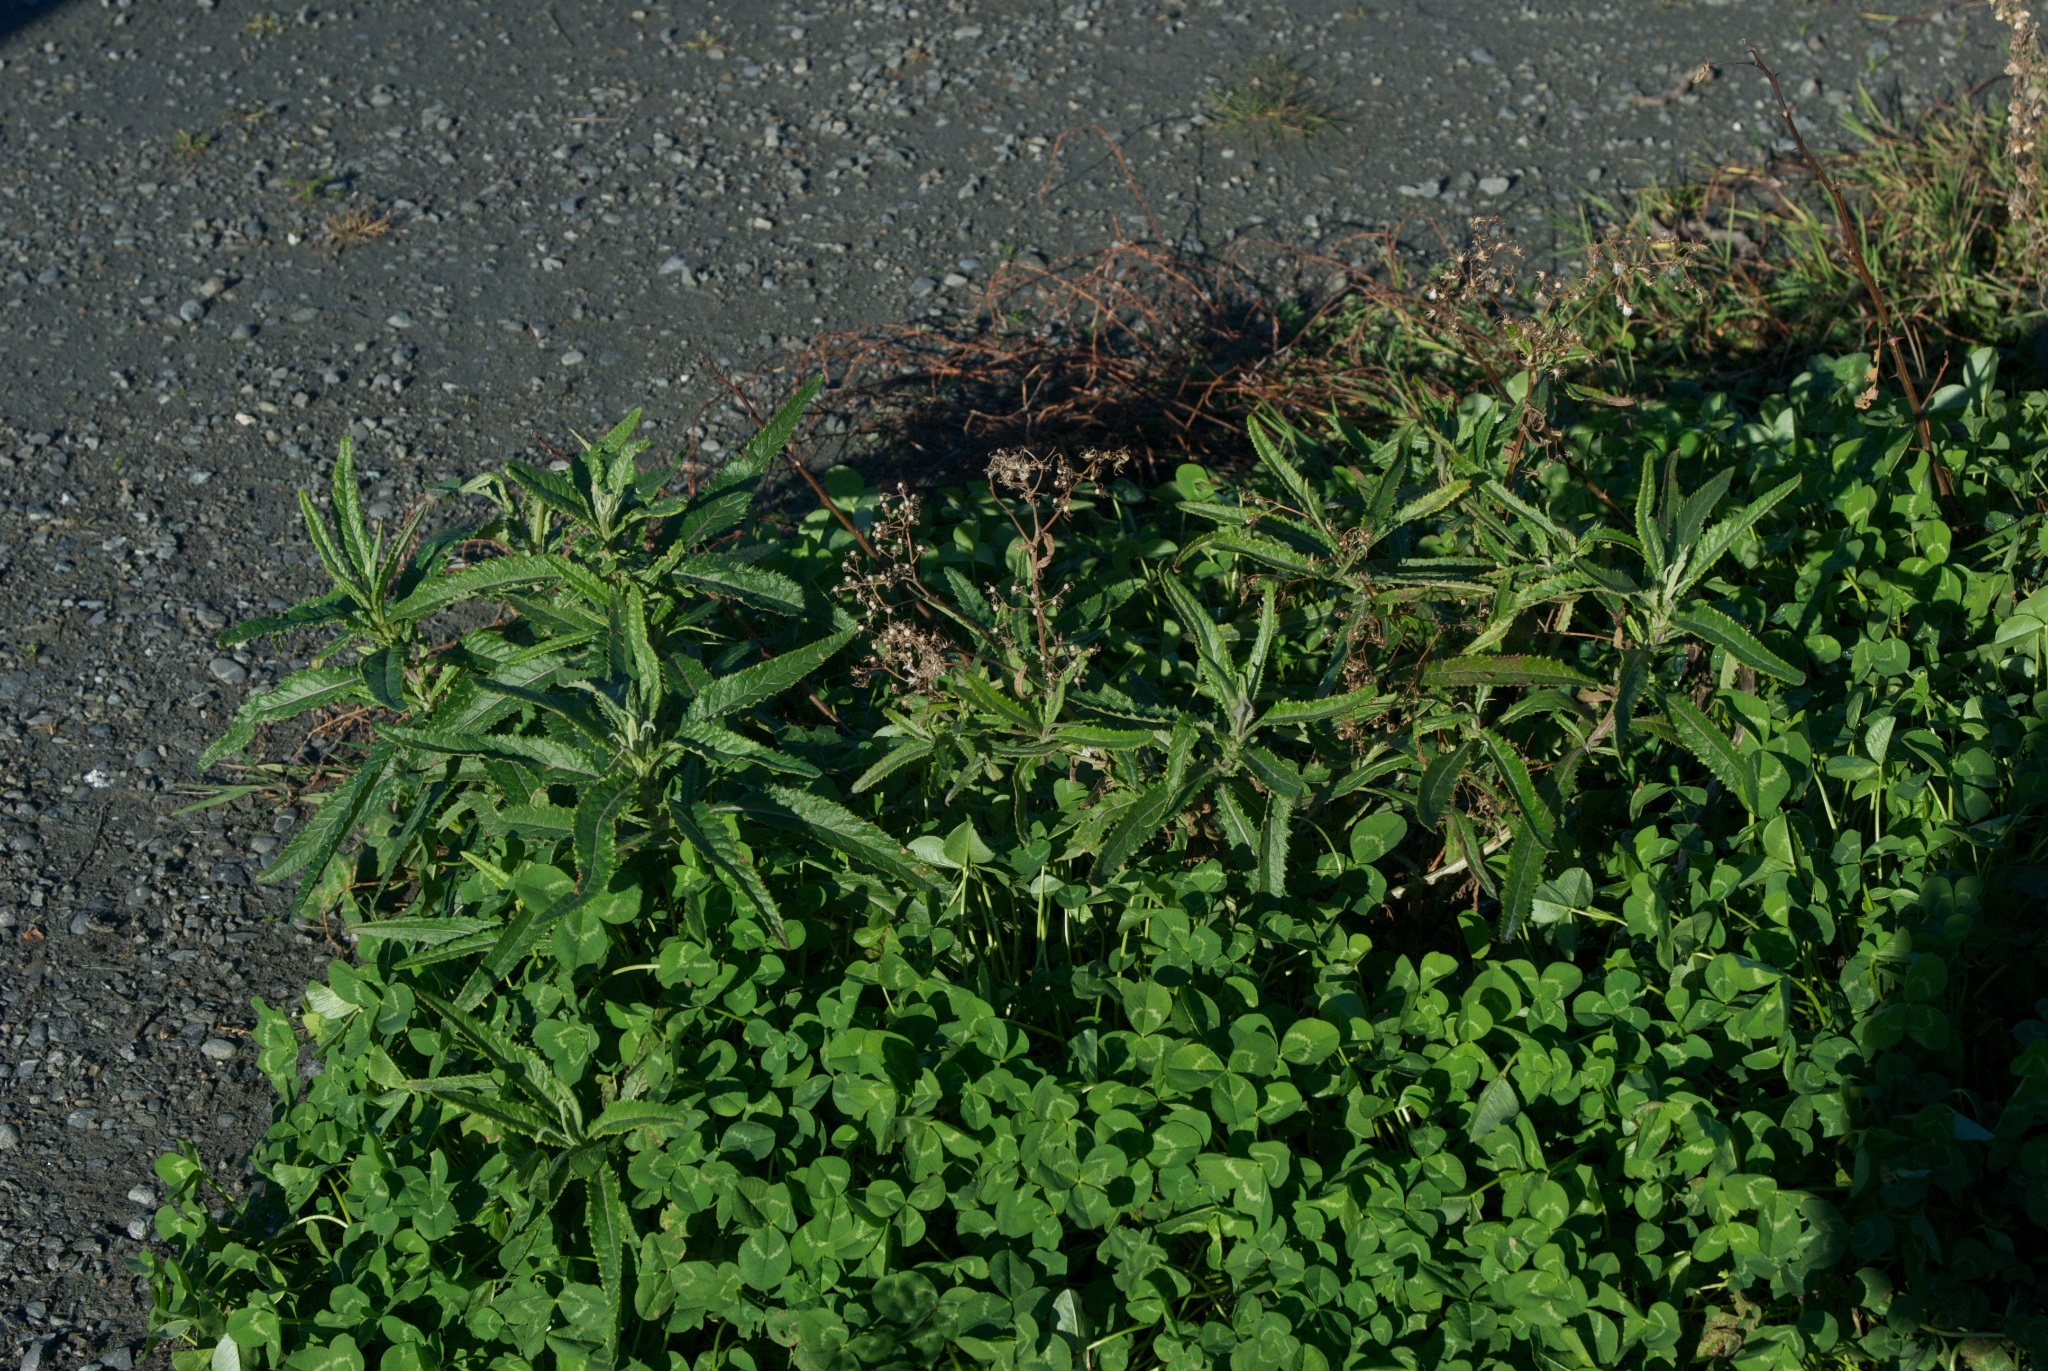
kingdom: Plantae
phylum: Tracheophyta
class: Magnoliopsida
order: Asterales
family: Asteraceae
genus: Senecio
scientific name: Senecio minimus
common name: Toothed fireweed
